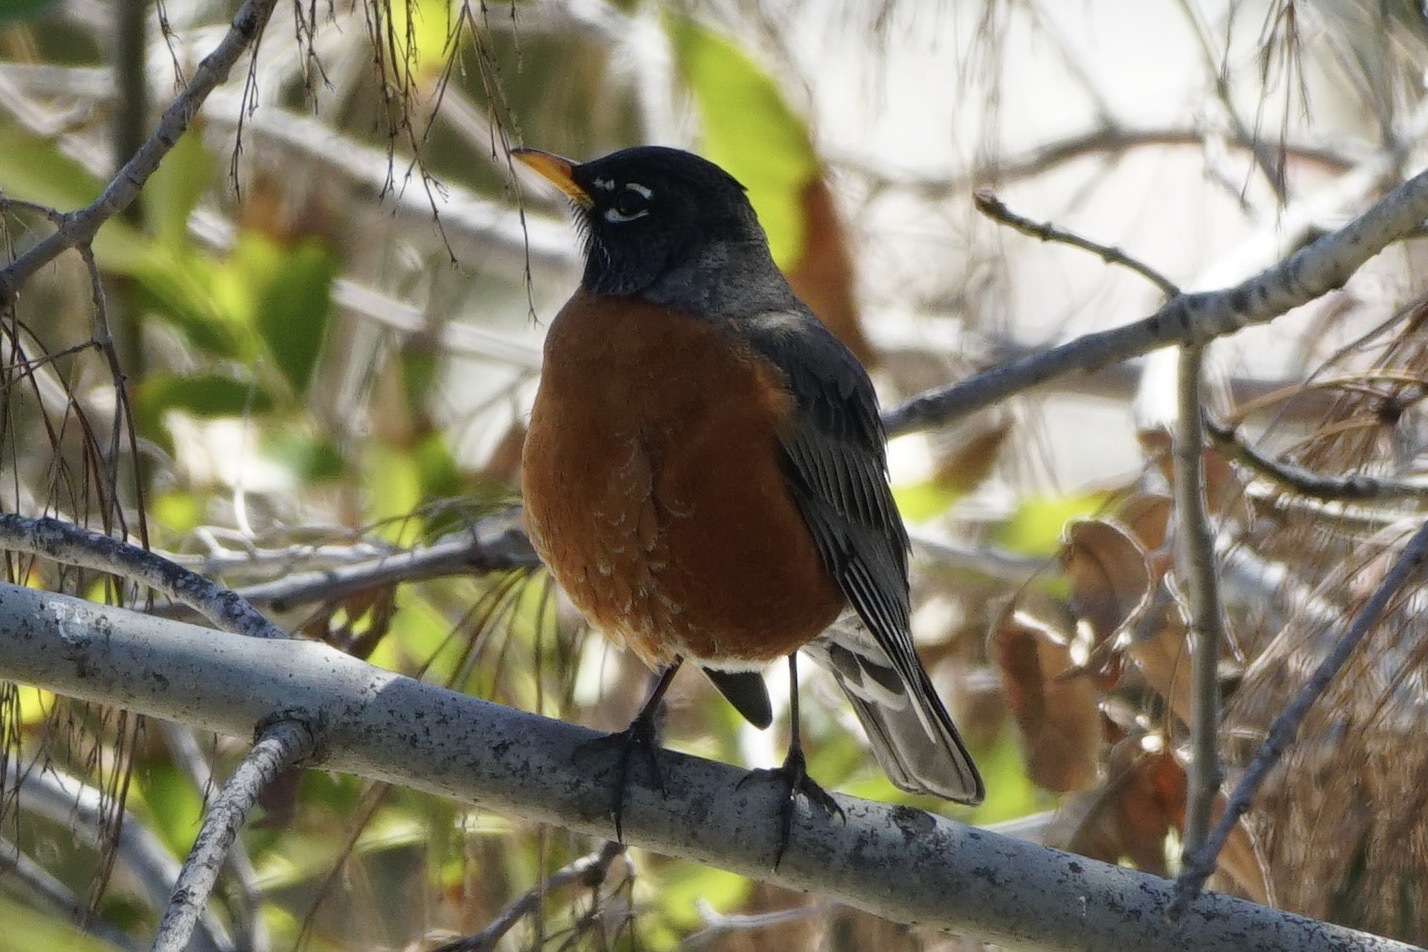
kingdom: Animalia
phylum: Chordata
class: Aves
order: Passeriformes
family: Turdidae
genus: Turdus
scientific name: Turdus migratorius
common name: American robin
